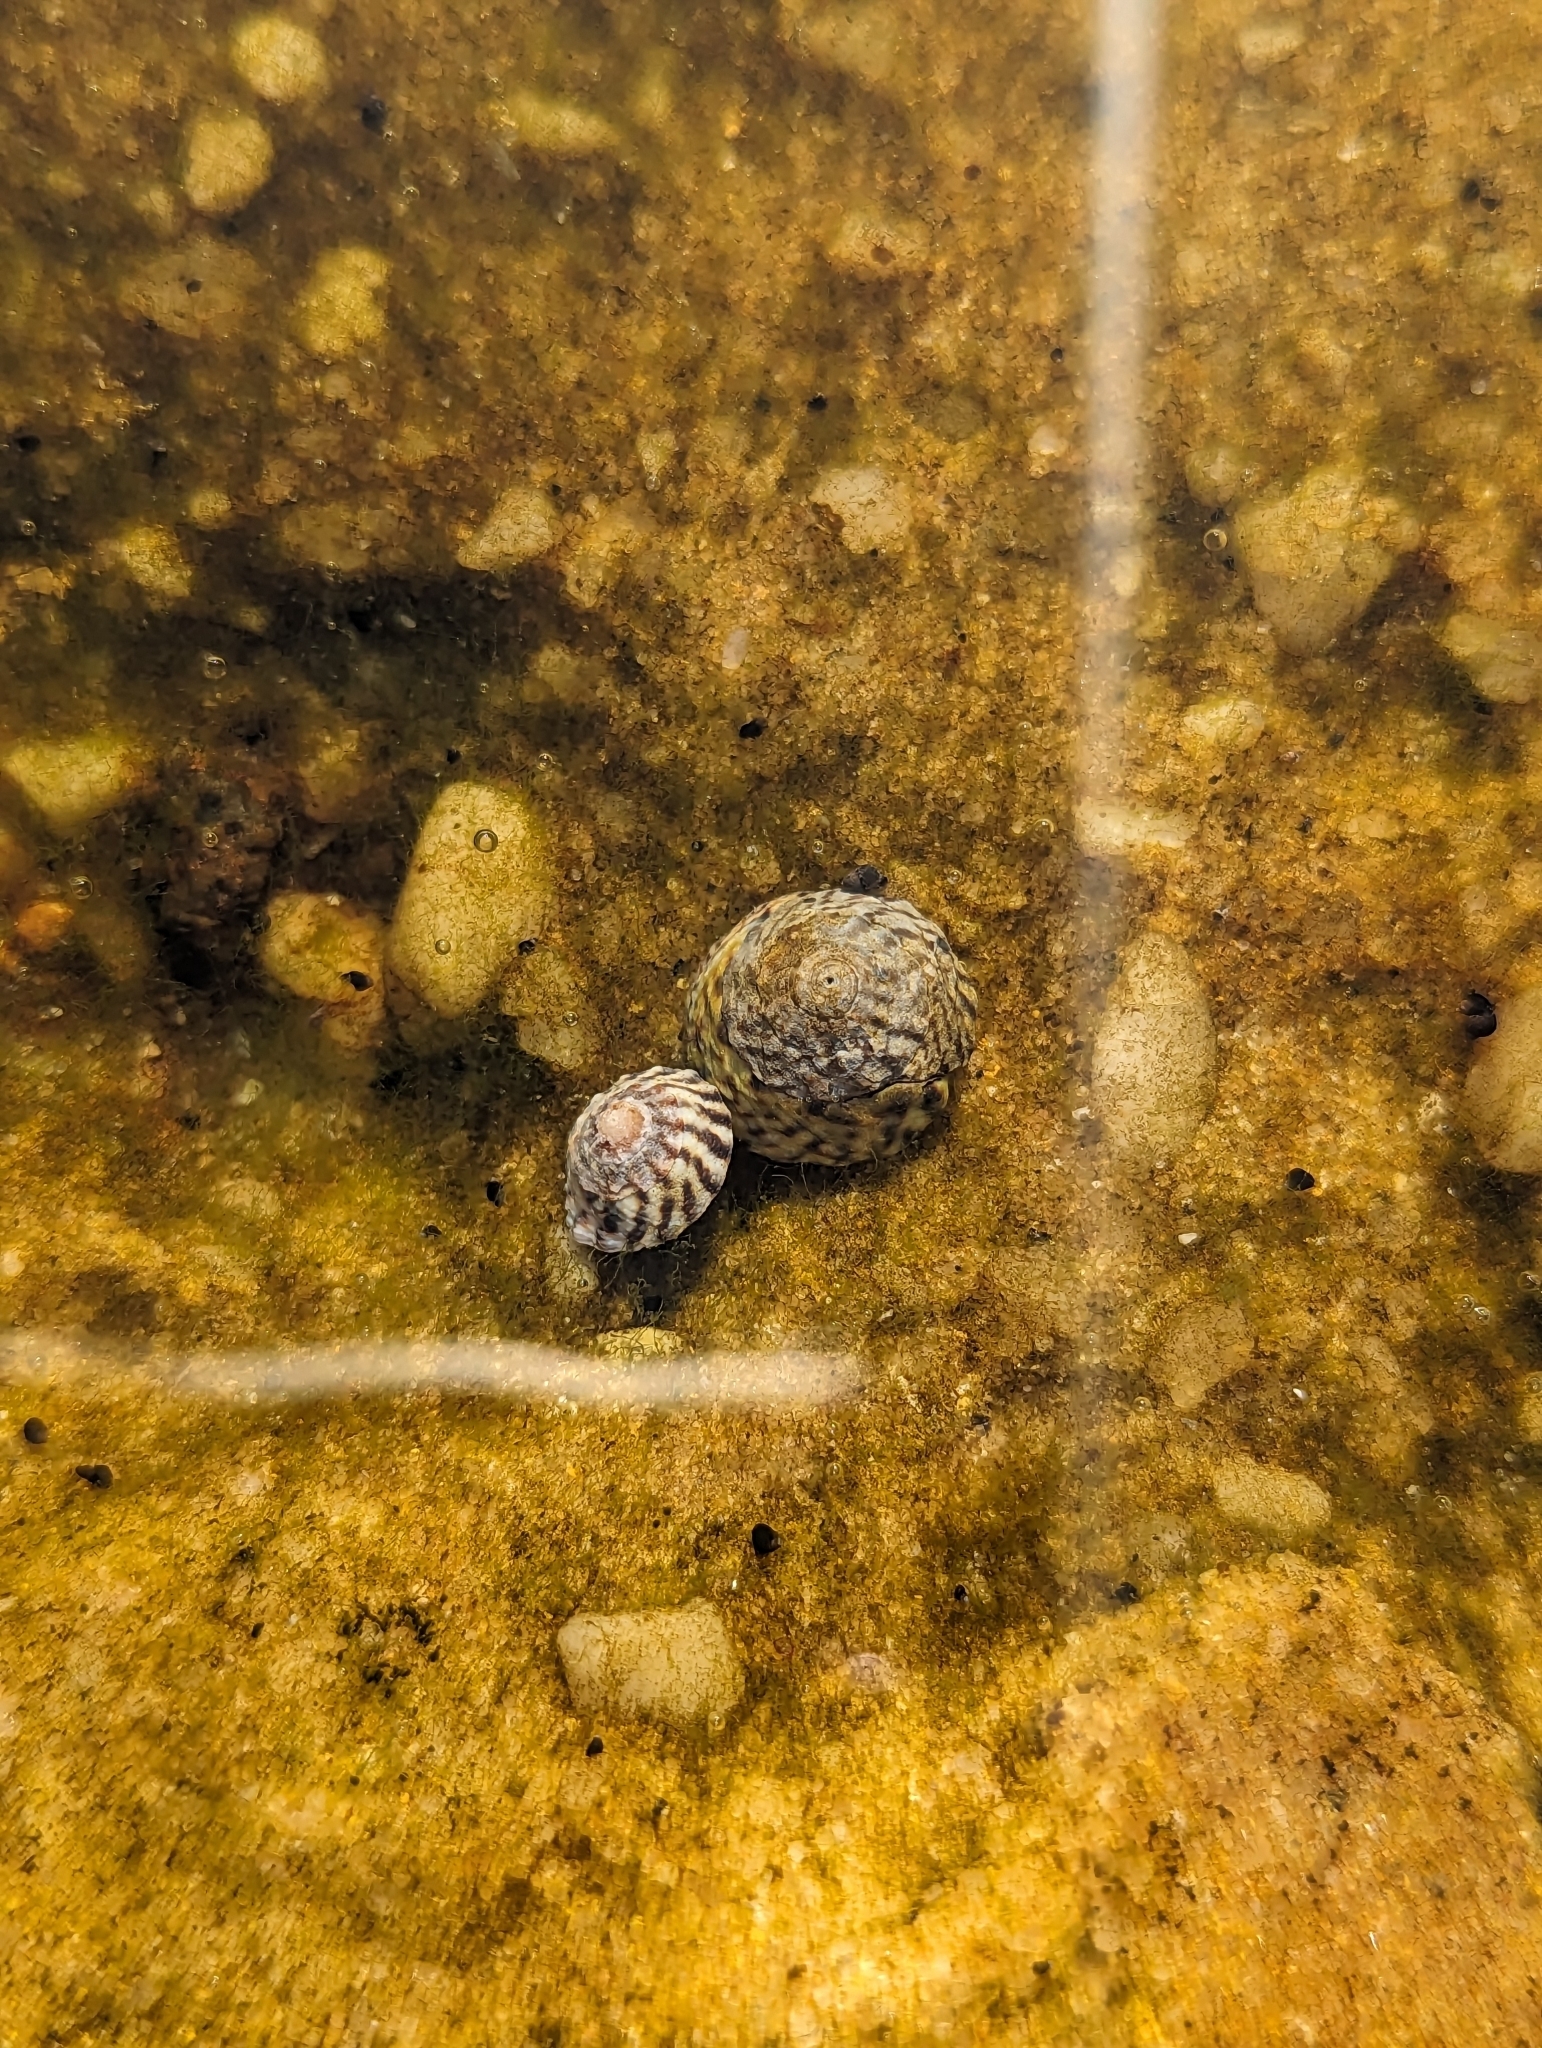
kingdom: Animalia
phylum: Mollusca
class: Gastropoda
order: Littorinimorpha
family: Littorinidae
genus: Bembicium
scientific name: Bembicium nanum
